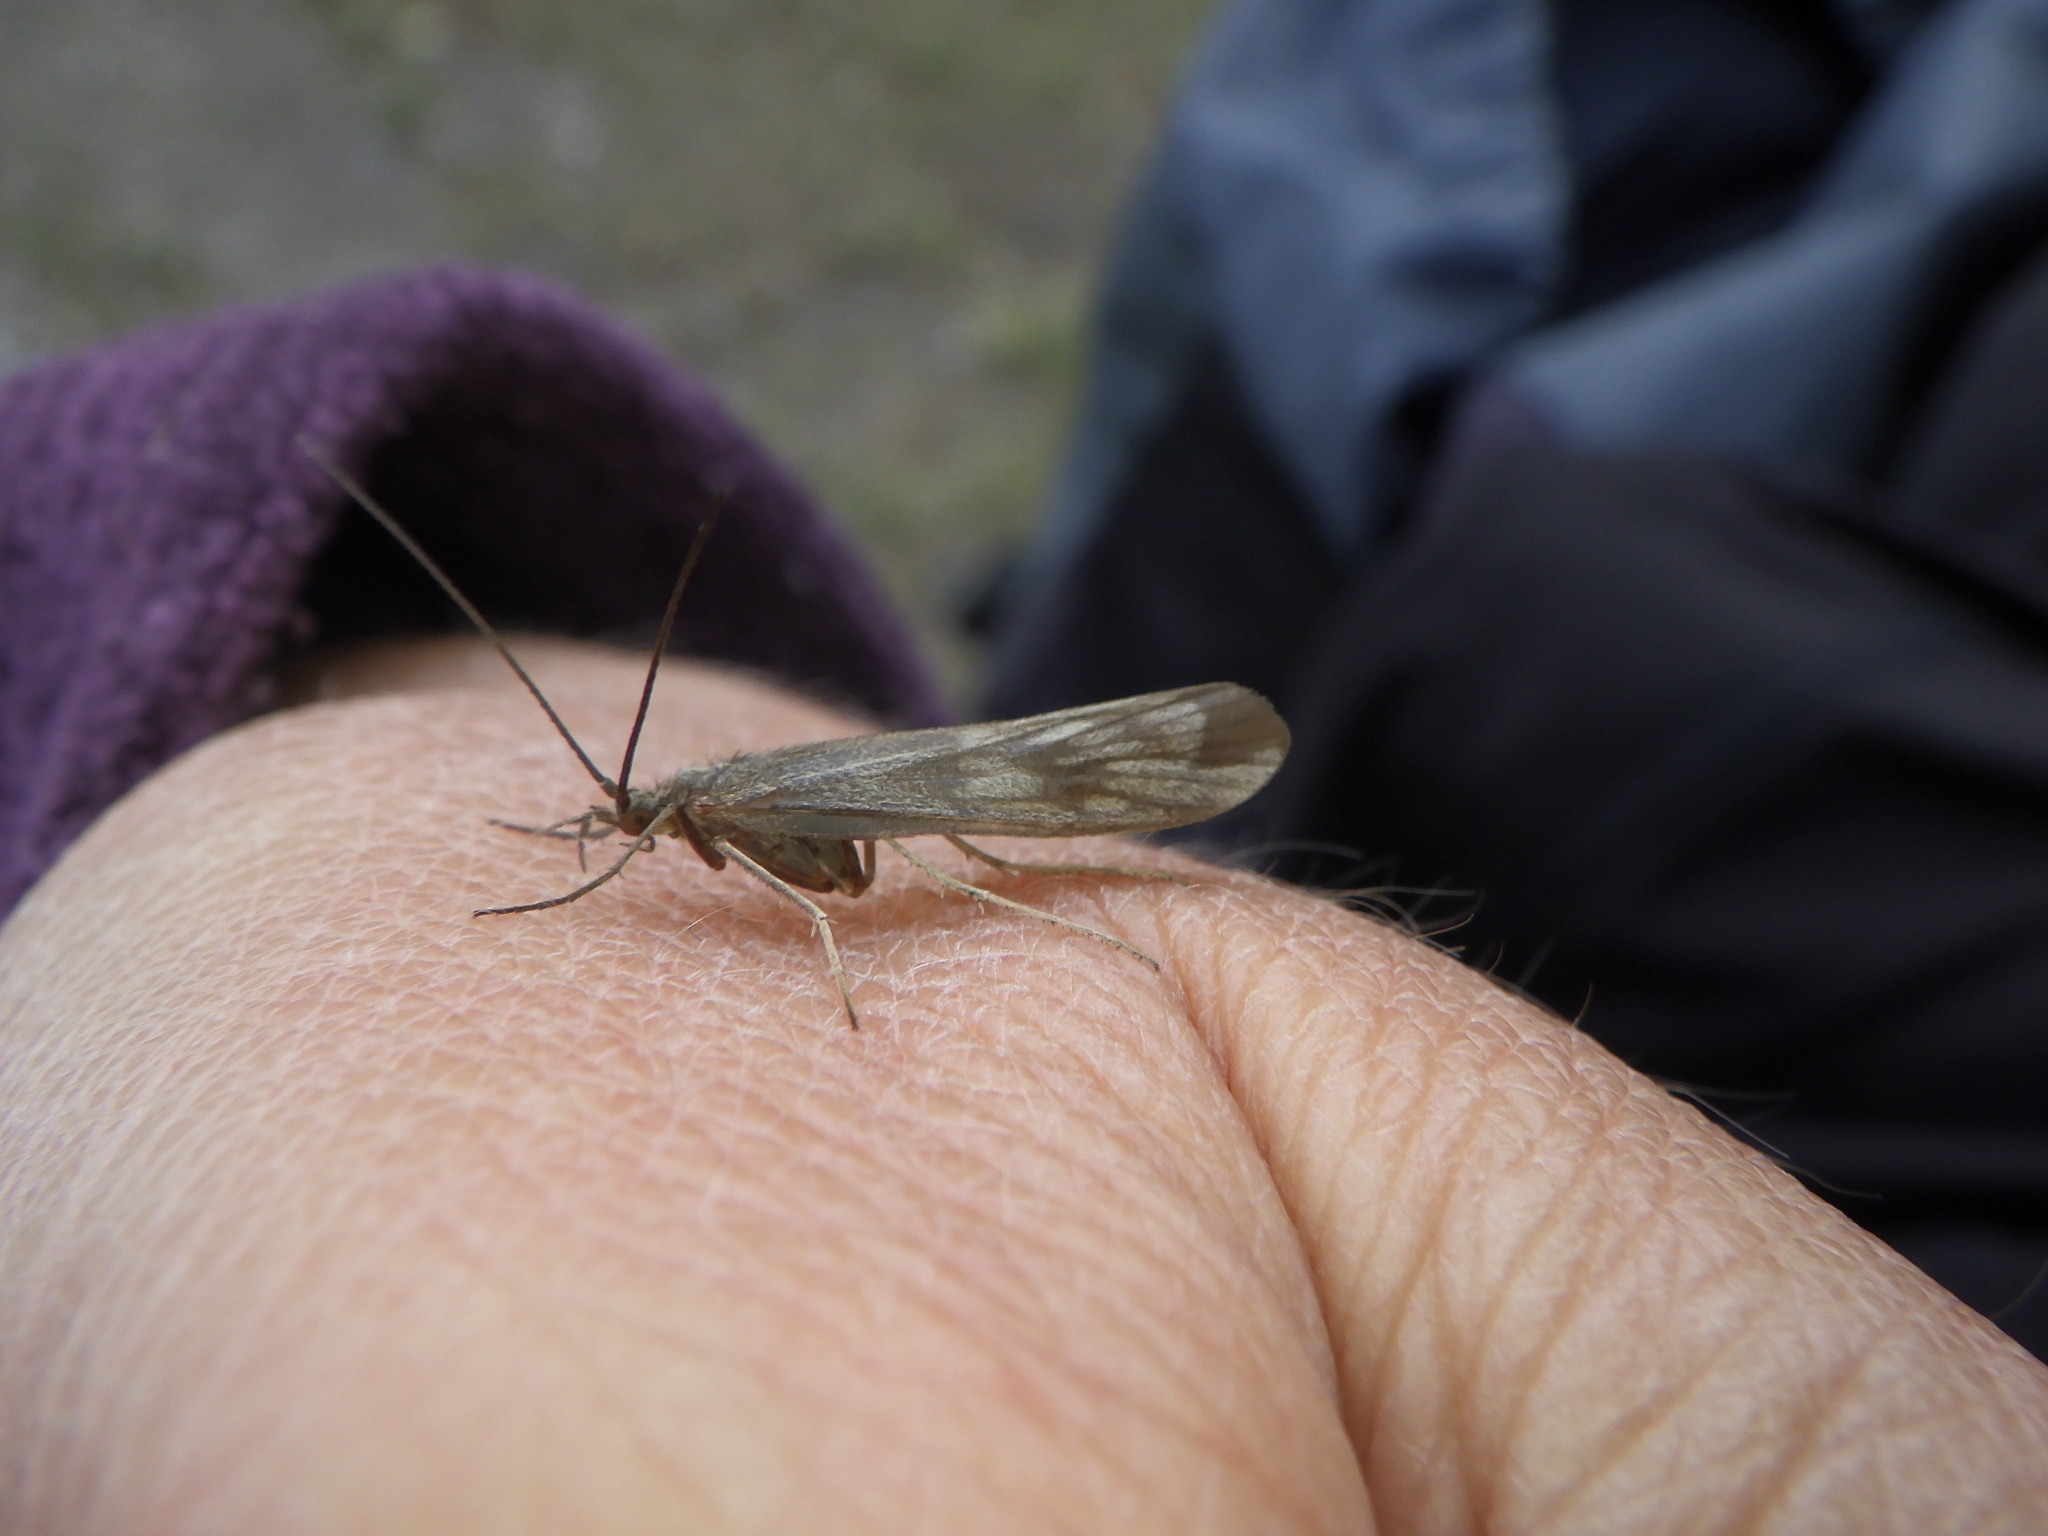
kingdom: Animalia
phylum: Arthropoda
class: Insecta
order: Trichoptera
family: Molannidae
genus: Molanna
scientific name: Molanna
